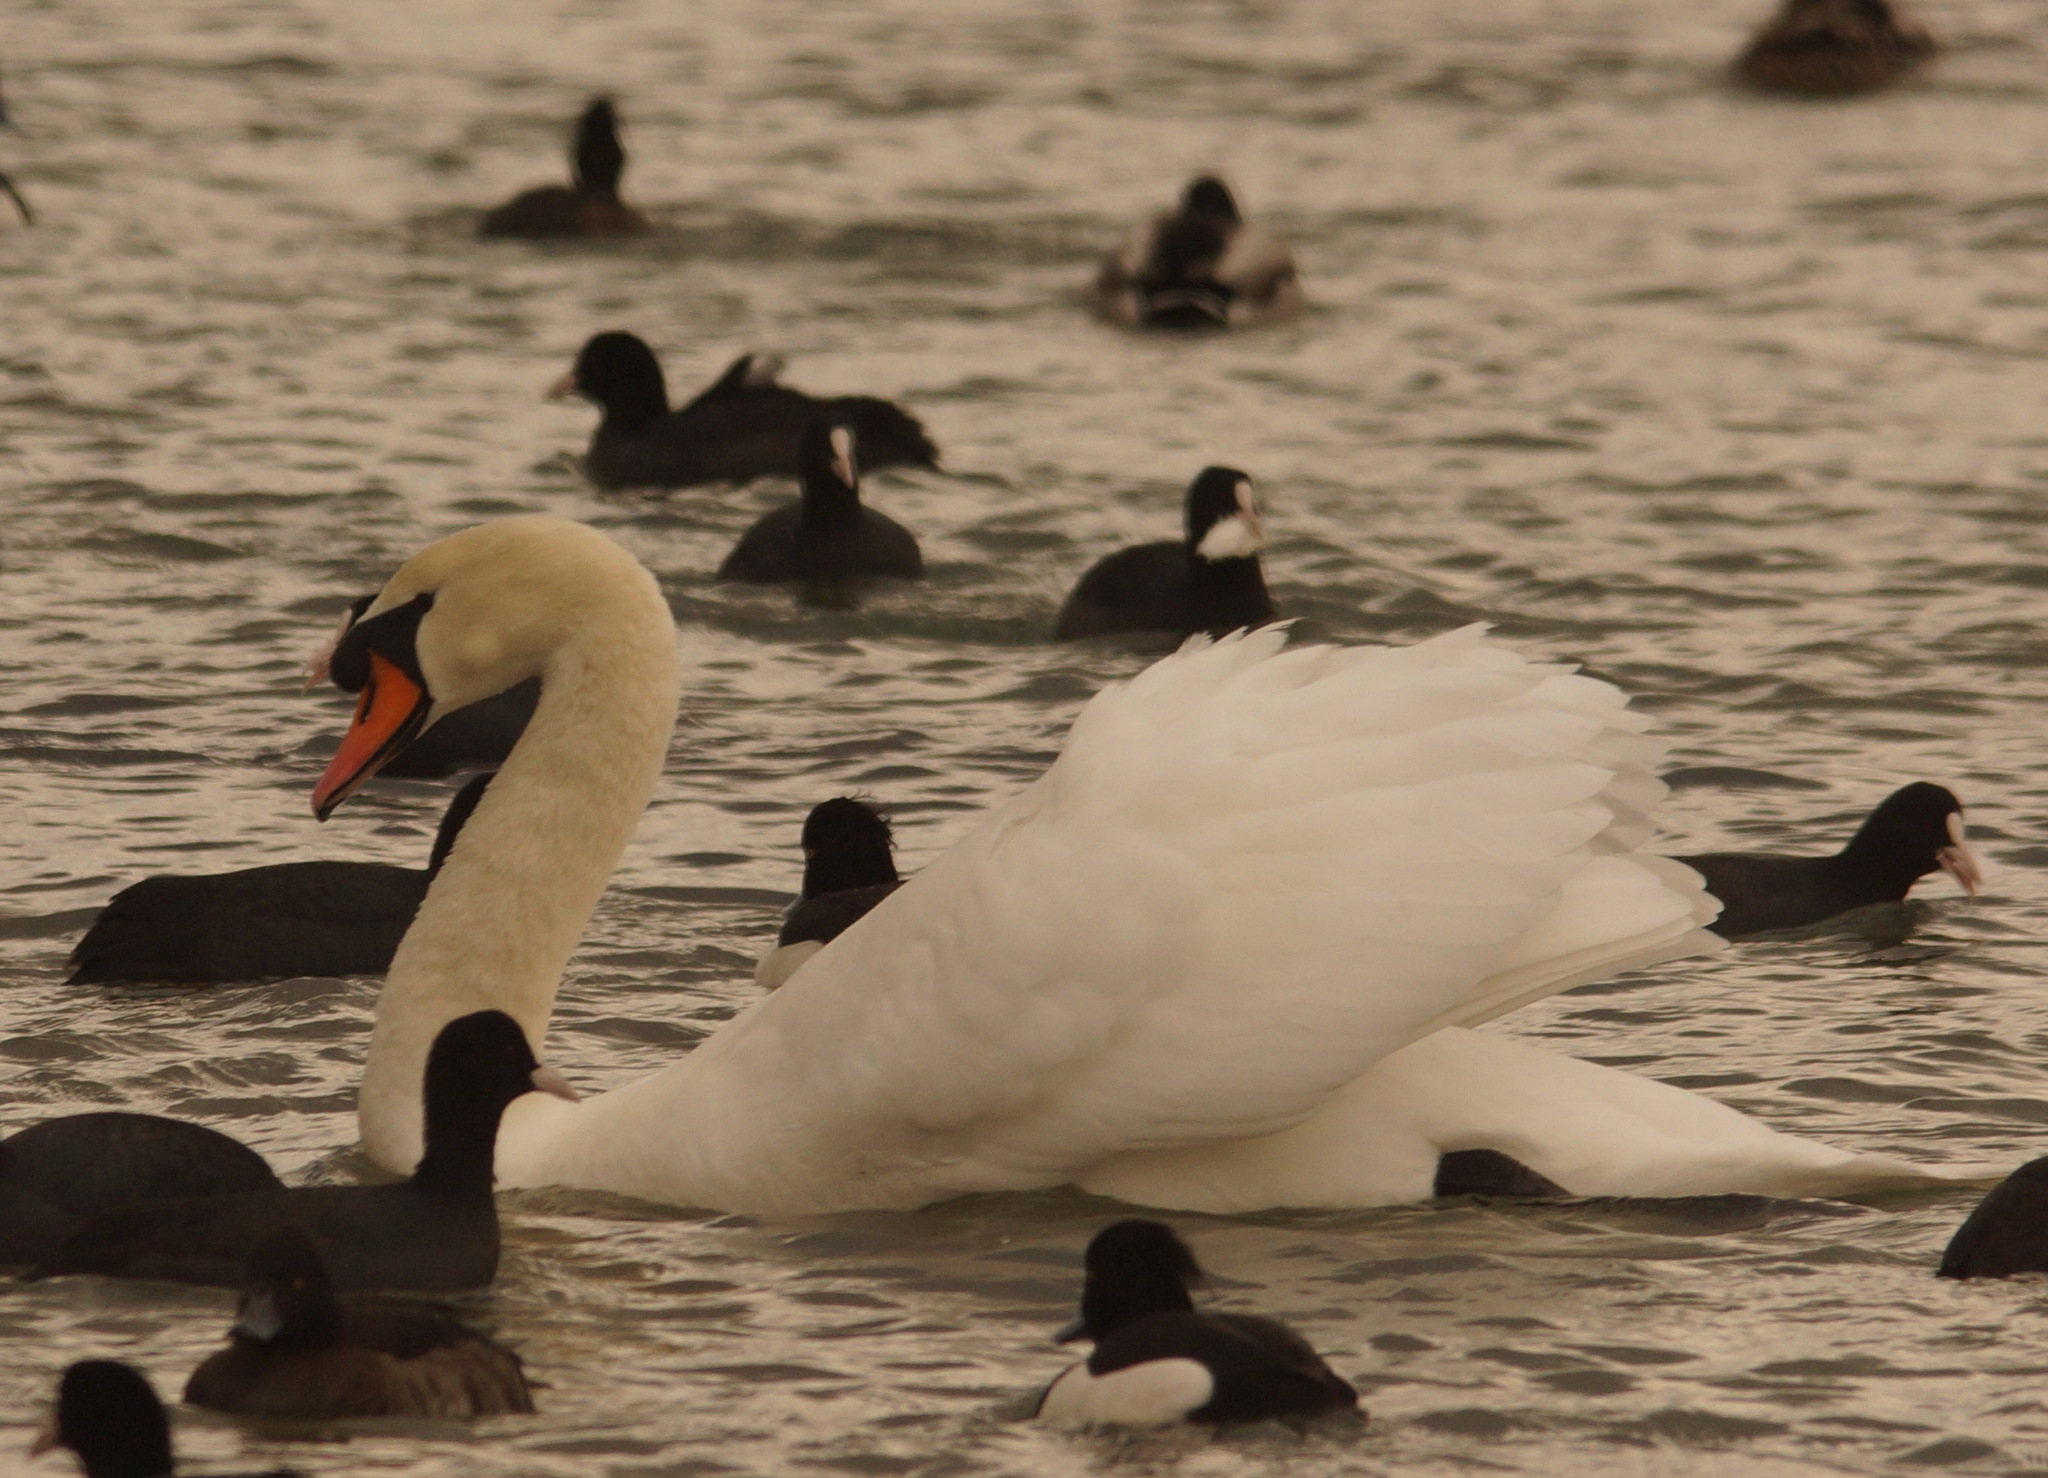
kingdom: Animalia
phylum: Chordata
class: Aves
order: Anseriformes
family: Anatidae
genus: Cygnus
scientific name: Cygnus olor
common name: Mute swan
